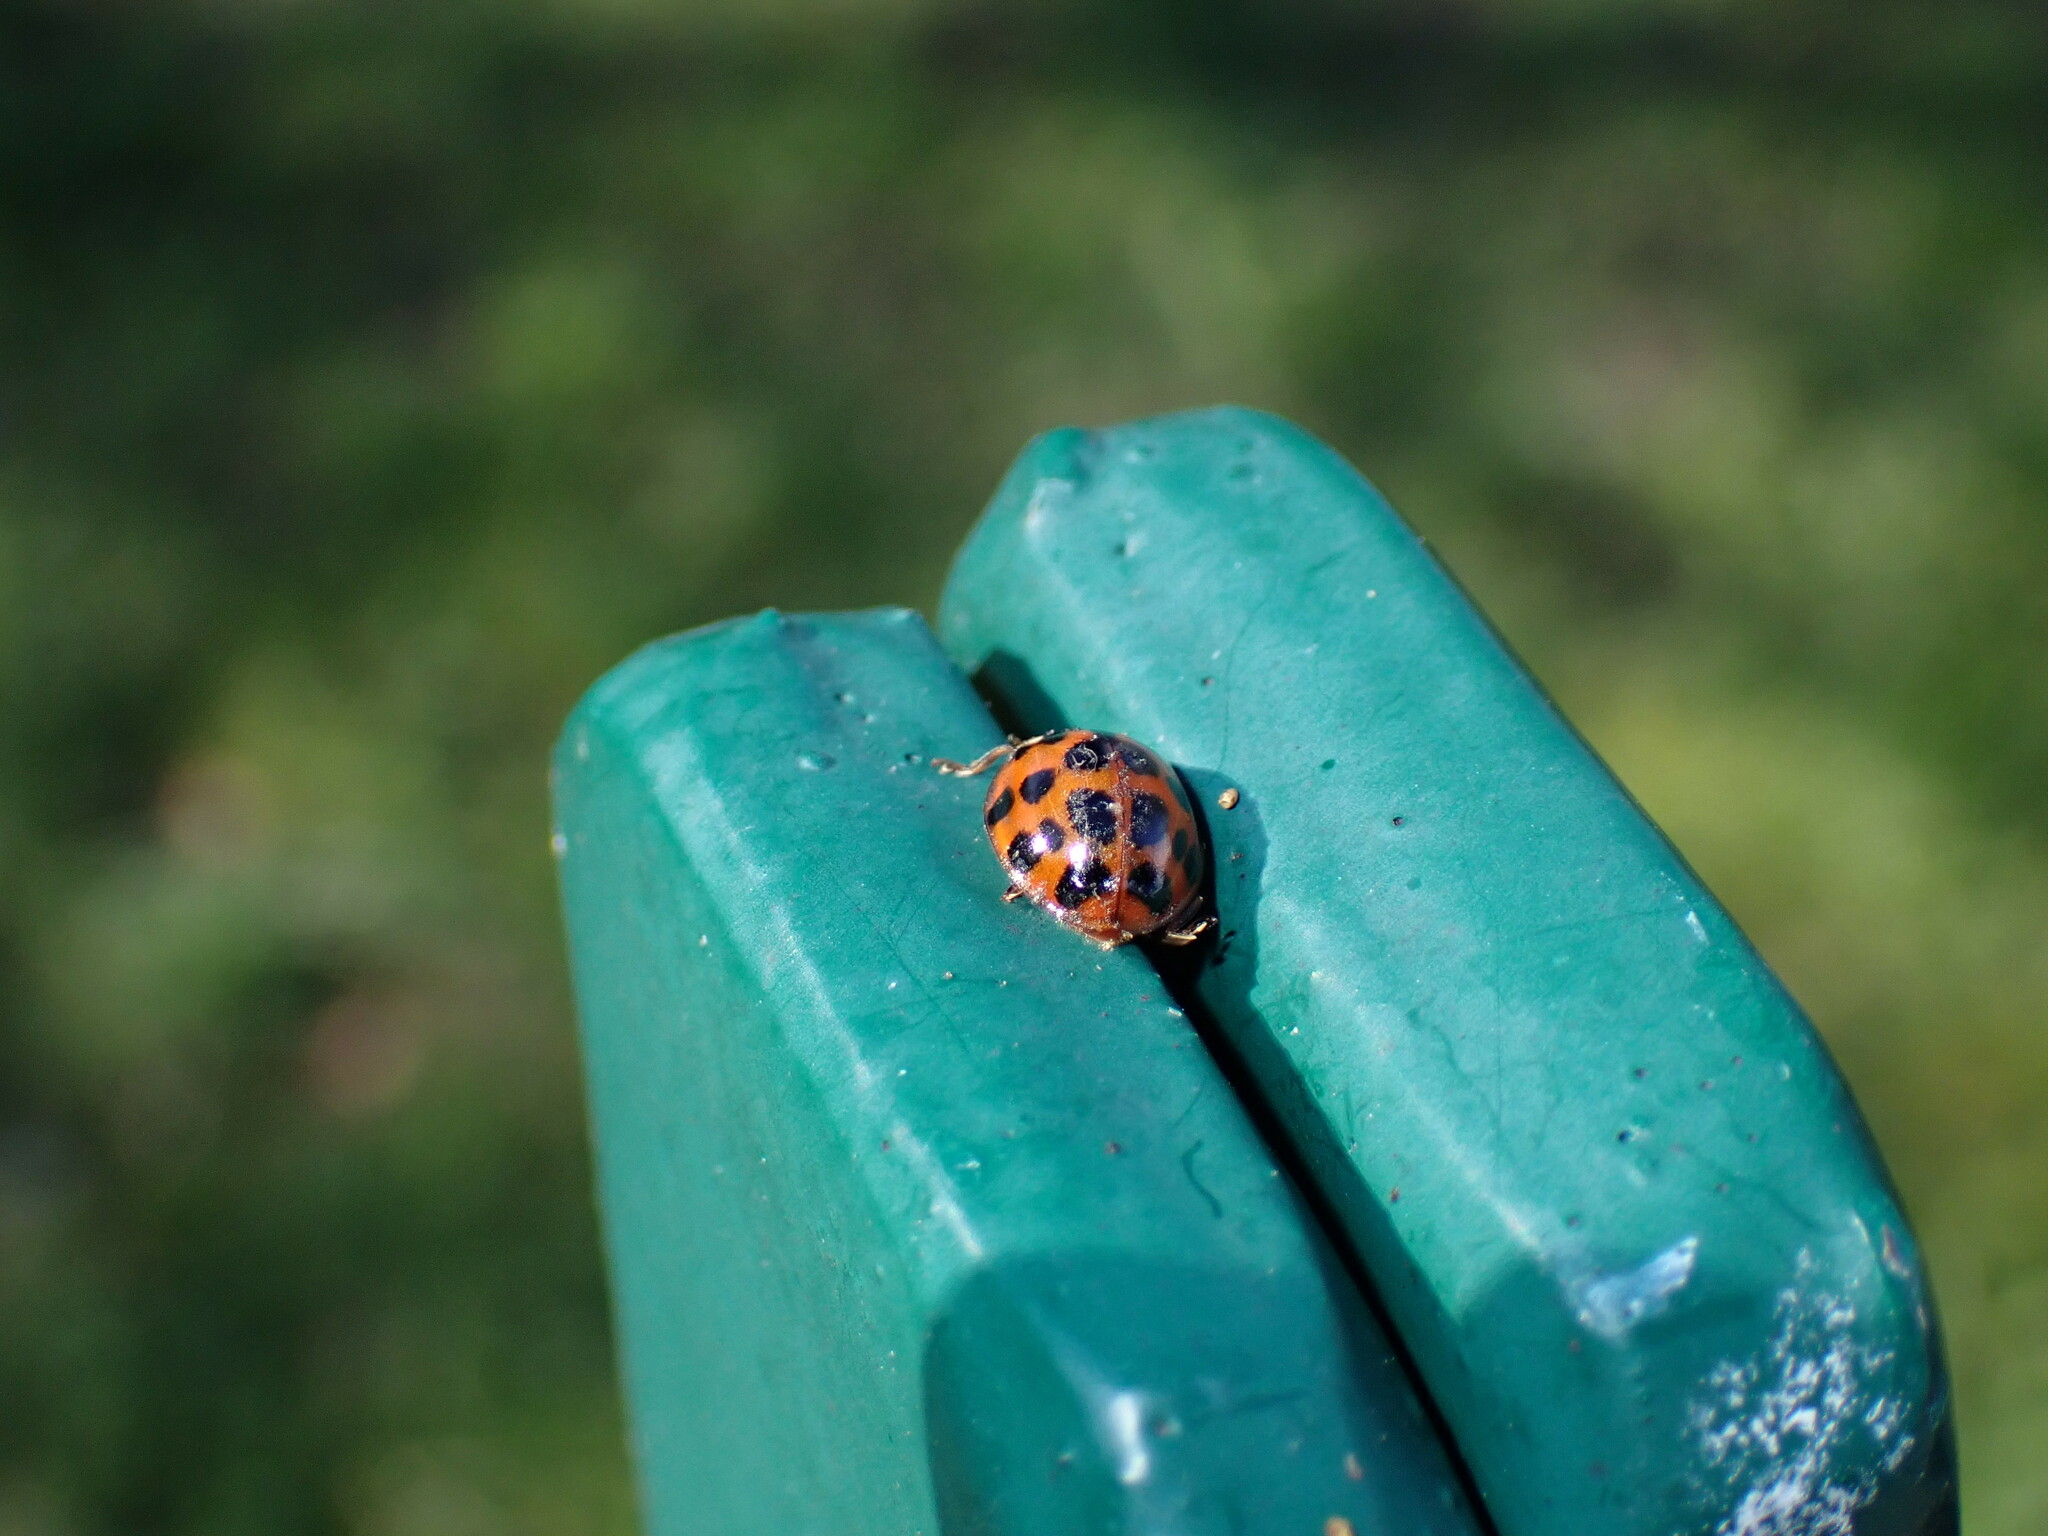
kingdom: Animalia
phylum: Arthropoda
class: Insecta
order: Coleoptera
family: Coccinellidae
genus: Harmonia
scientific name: Harmonia axyridis
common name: Harlequin ladybird
